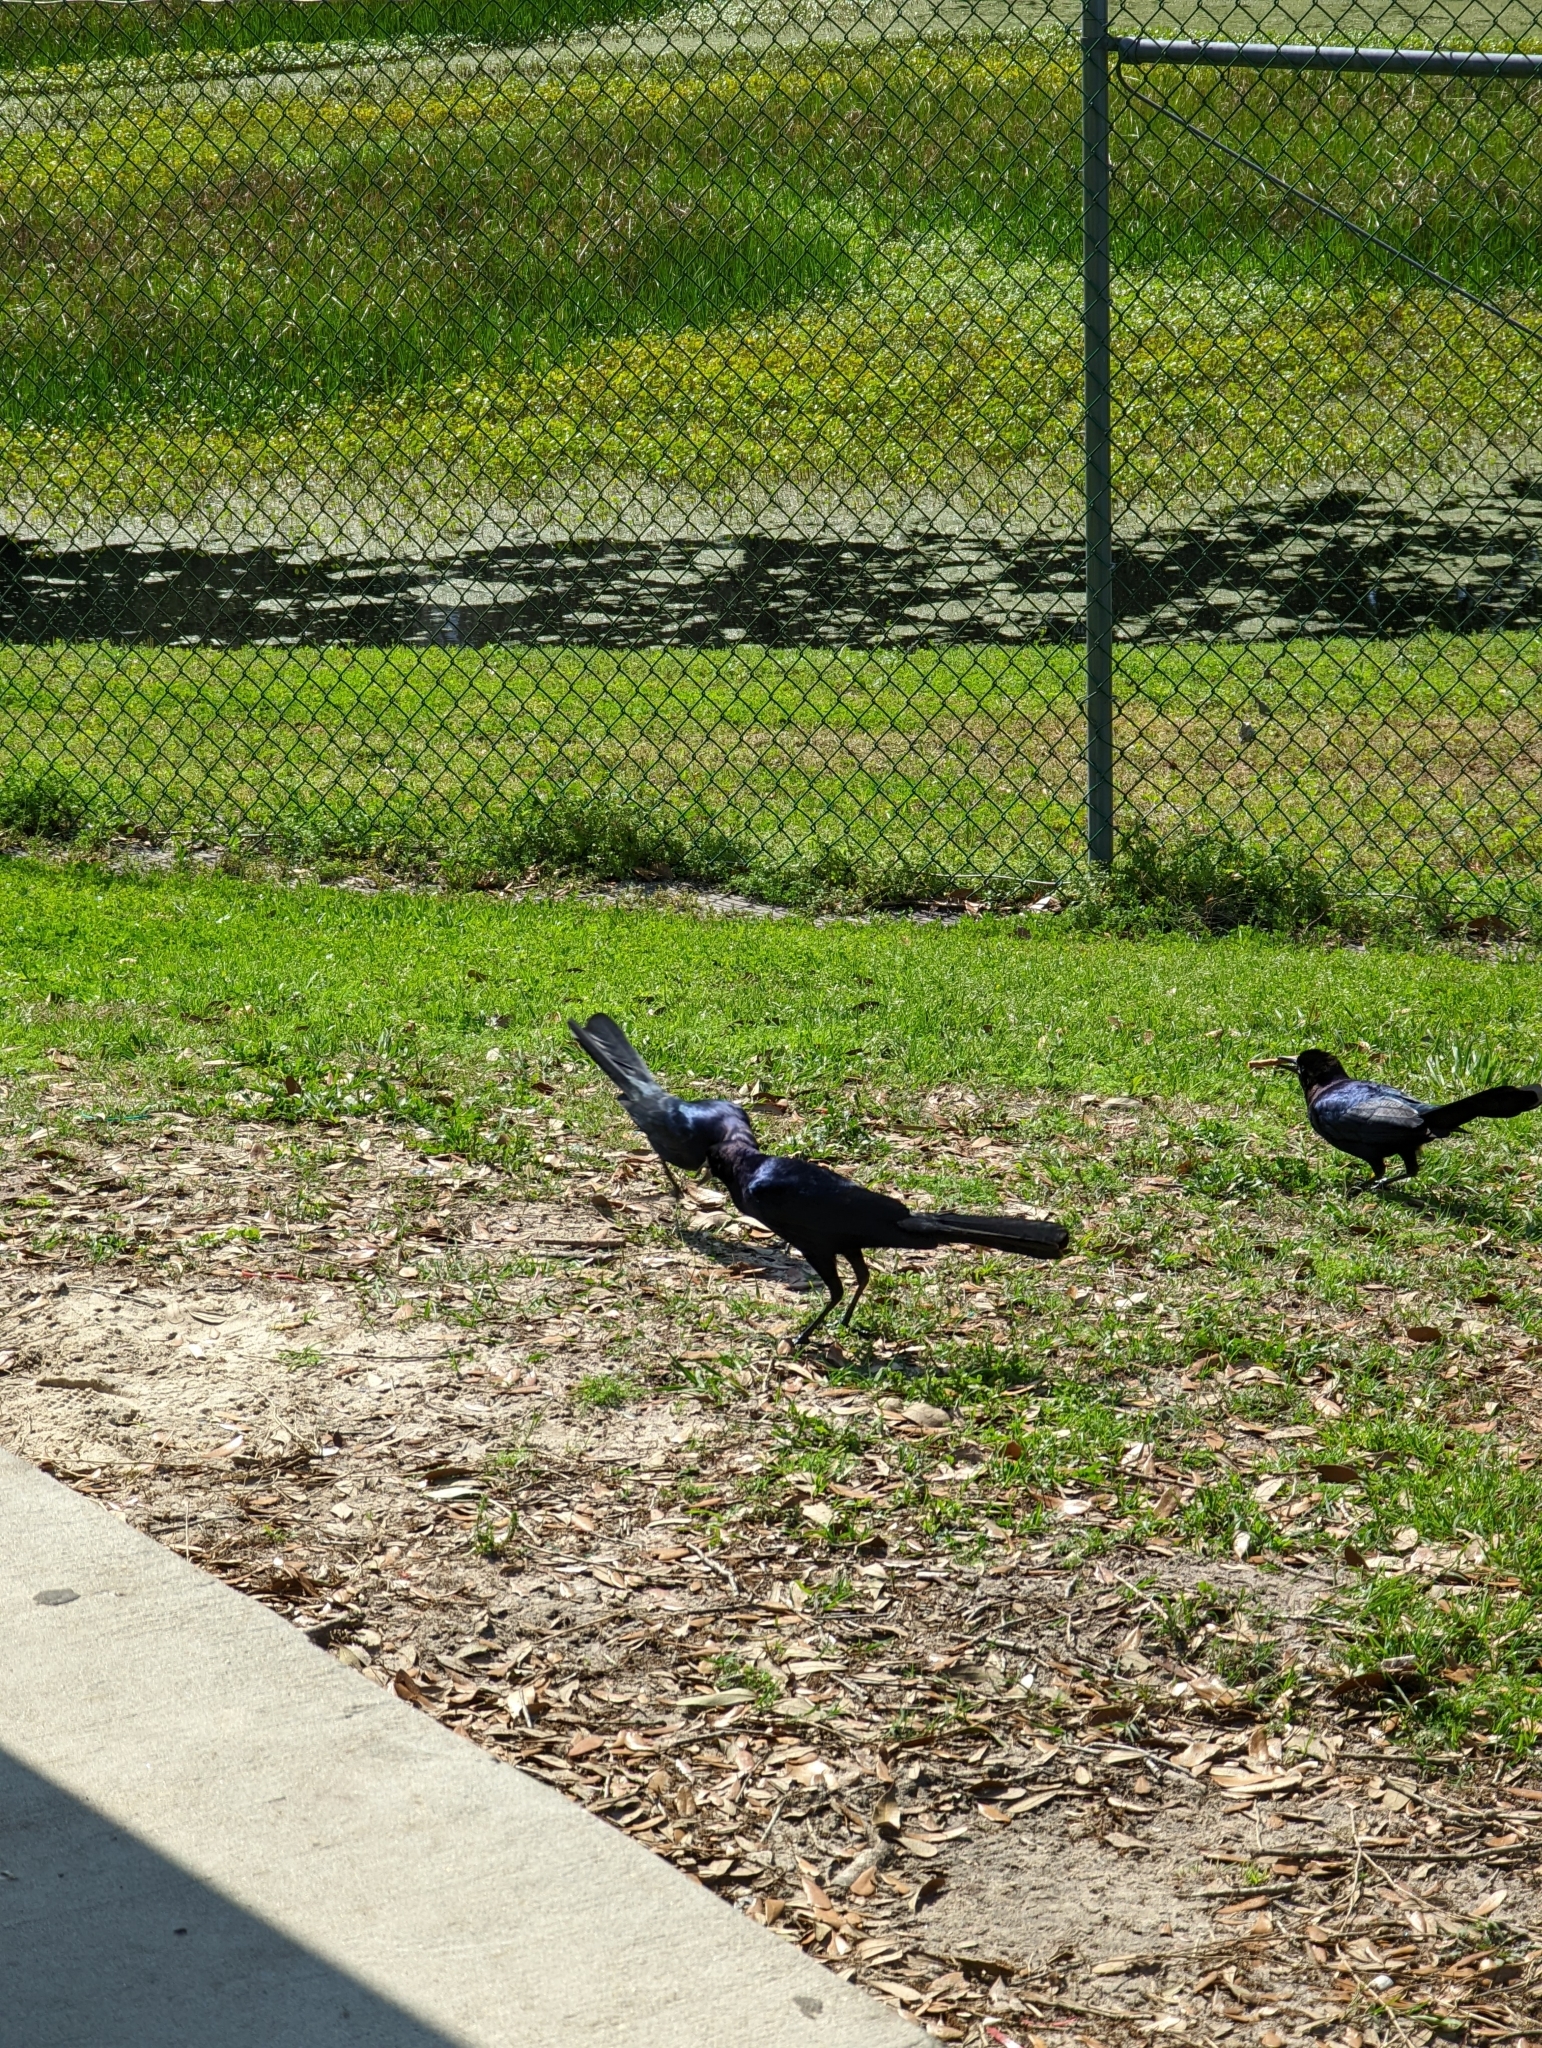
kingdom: Animalia
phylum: Chordata
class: Aves
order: Passeriformes
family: Icteridae
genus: Quiscalus
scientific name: Quiscalus major
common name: Boat-tailed grackle
